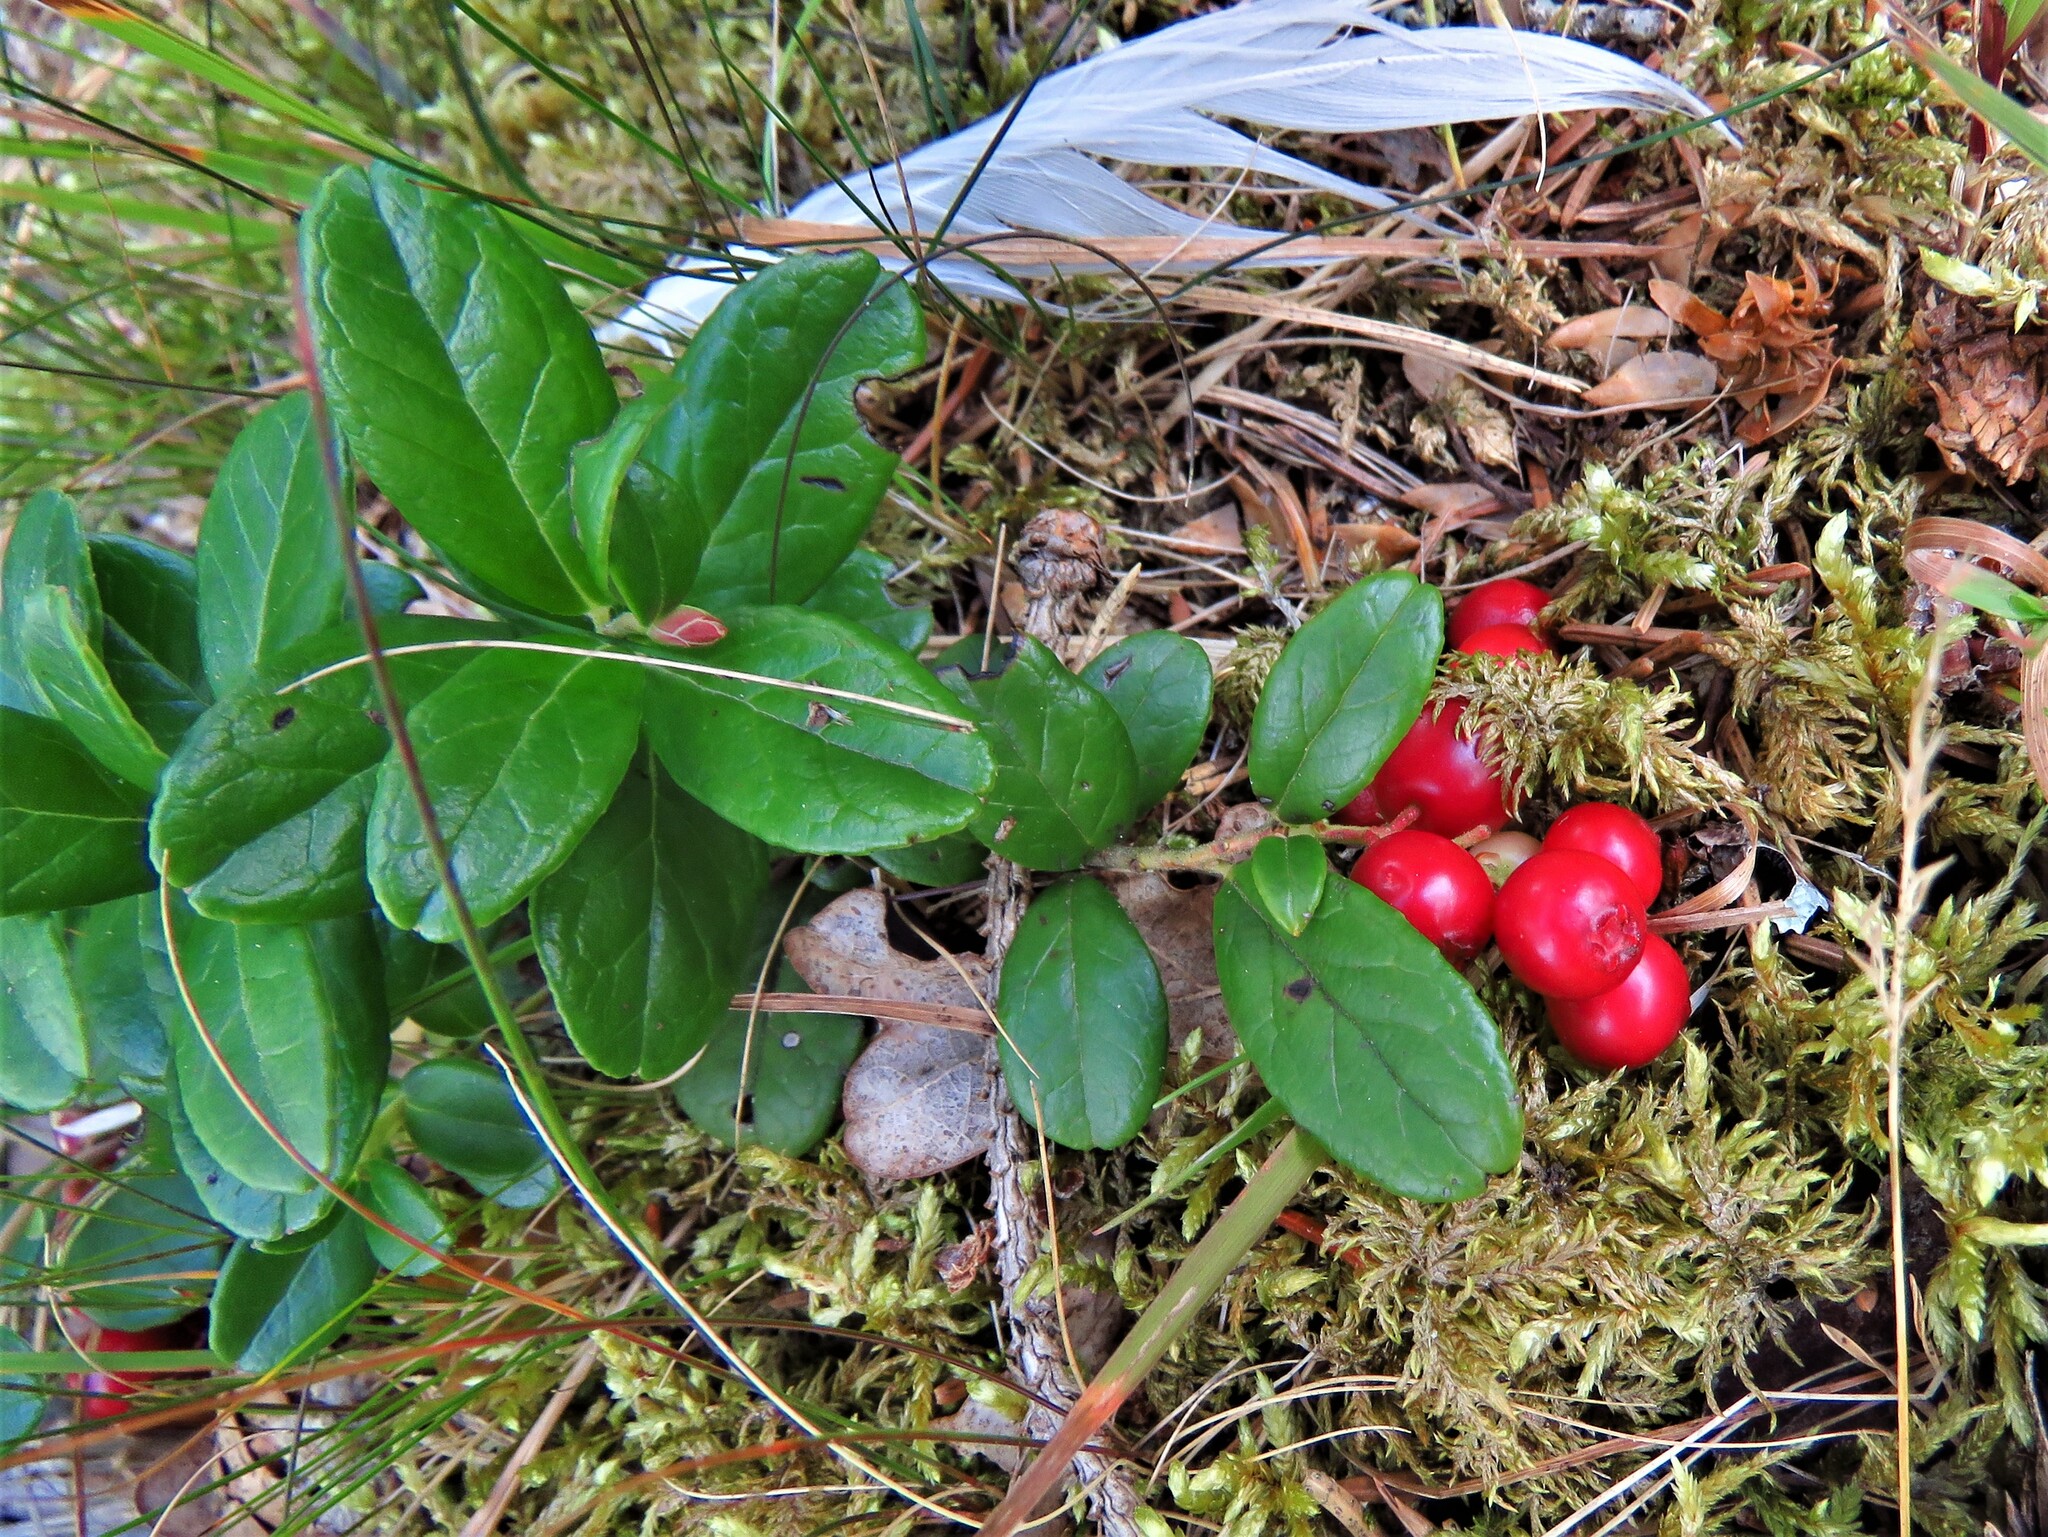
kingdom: Plantae
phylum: Tracheophyta
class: Magnoliopsida
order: Ericales
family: Ericaceae
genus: Vaccinium
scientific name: Vaccinium vitis-idaea
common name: Cowberry
